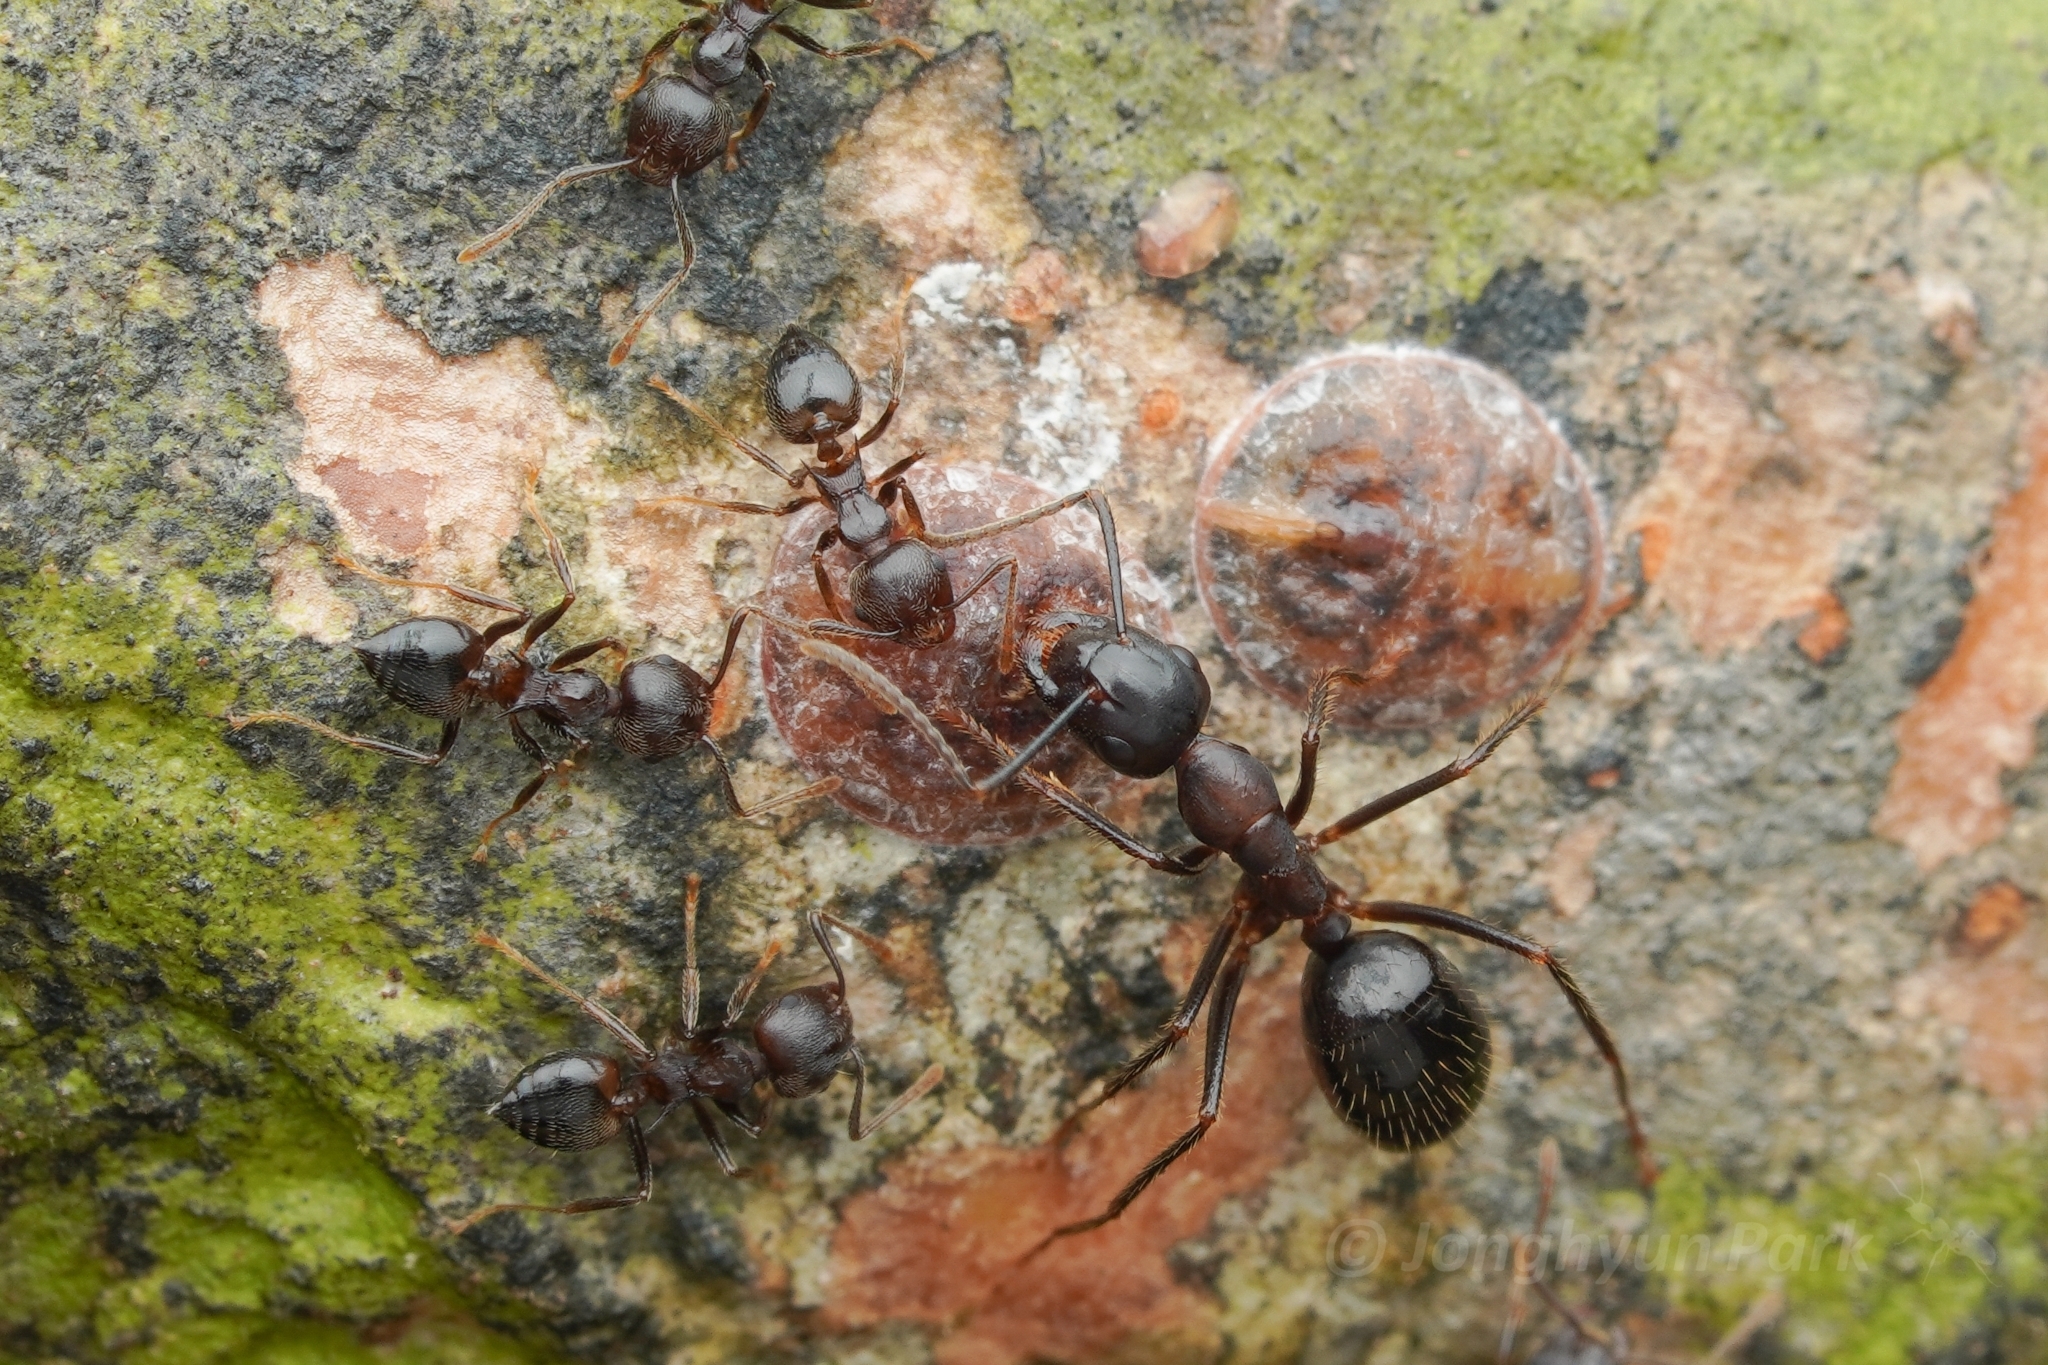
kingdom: Animalia
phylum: Arthropoda
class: Insecta
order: Hymenoptera
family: Formicidae
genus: Crematogaster
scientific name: Crematogaster modiglianii
